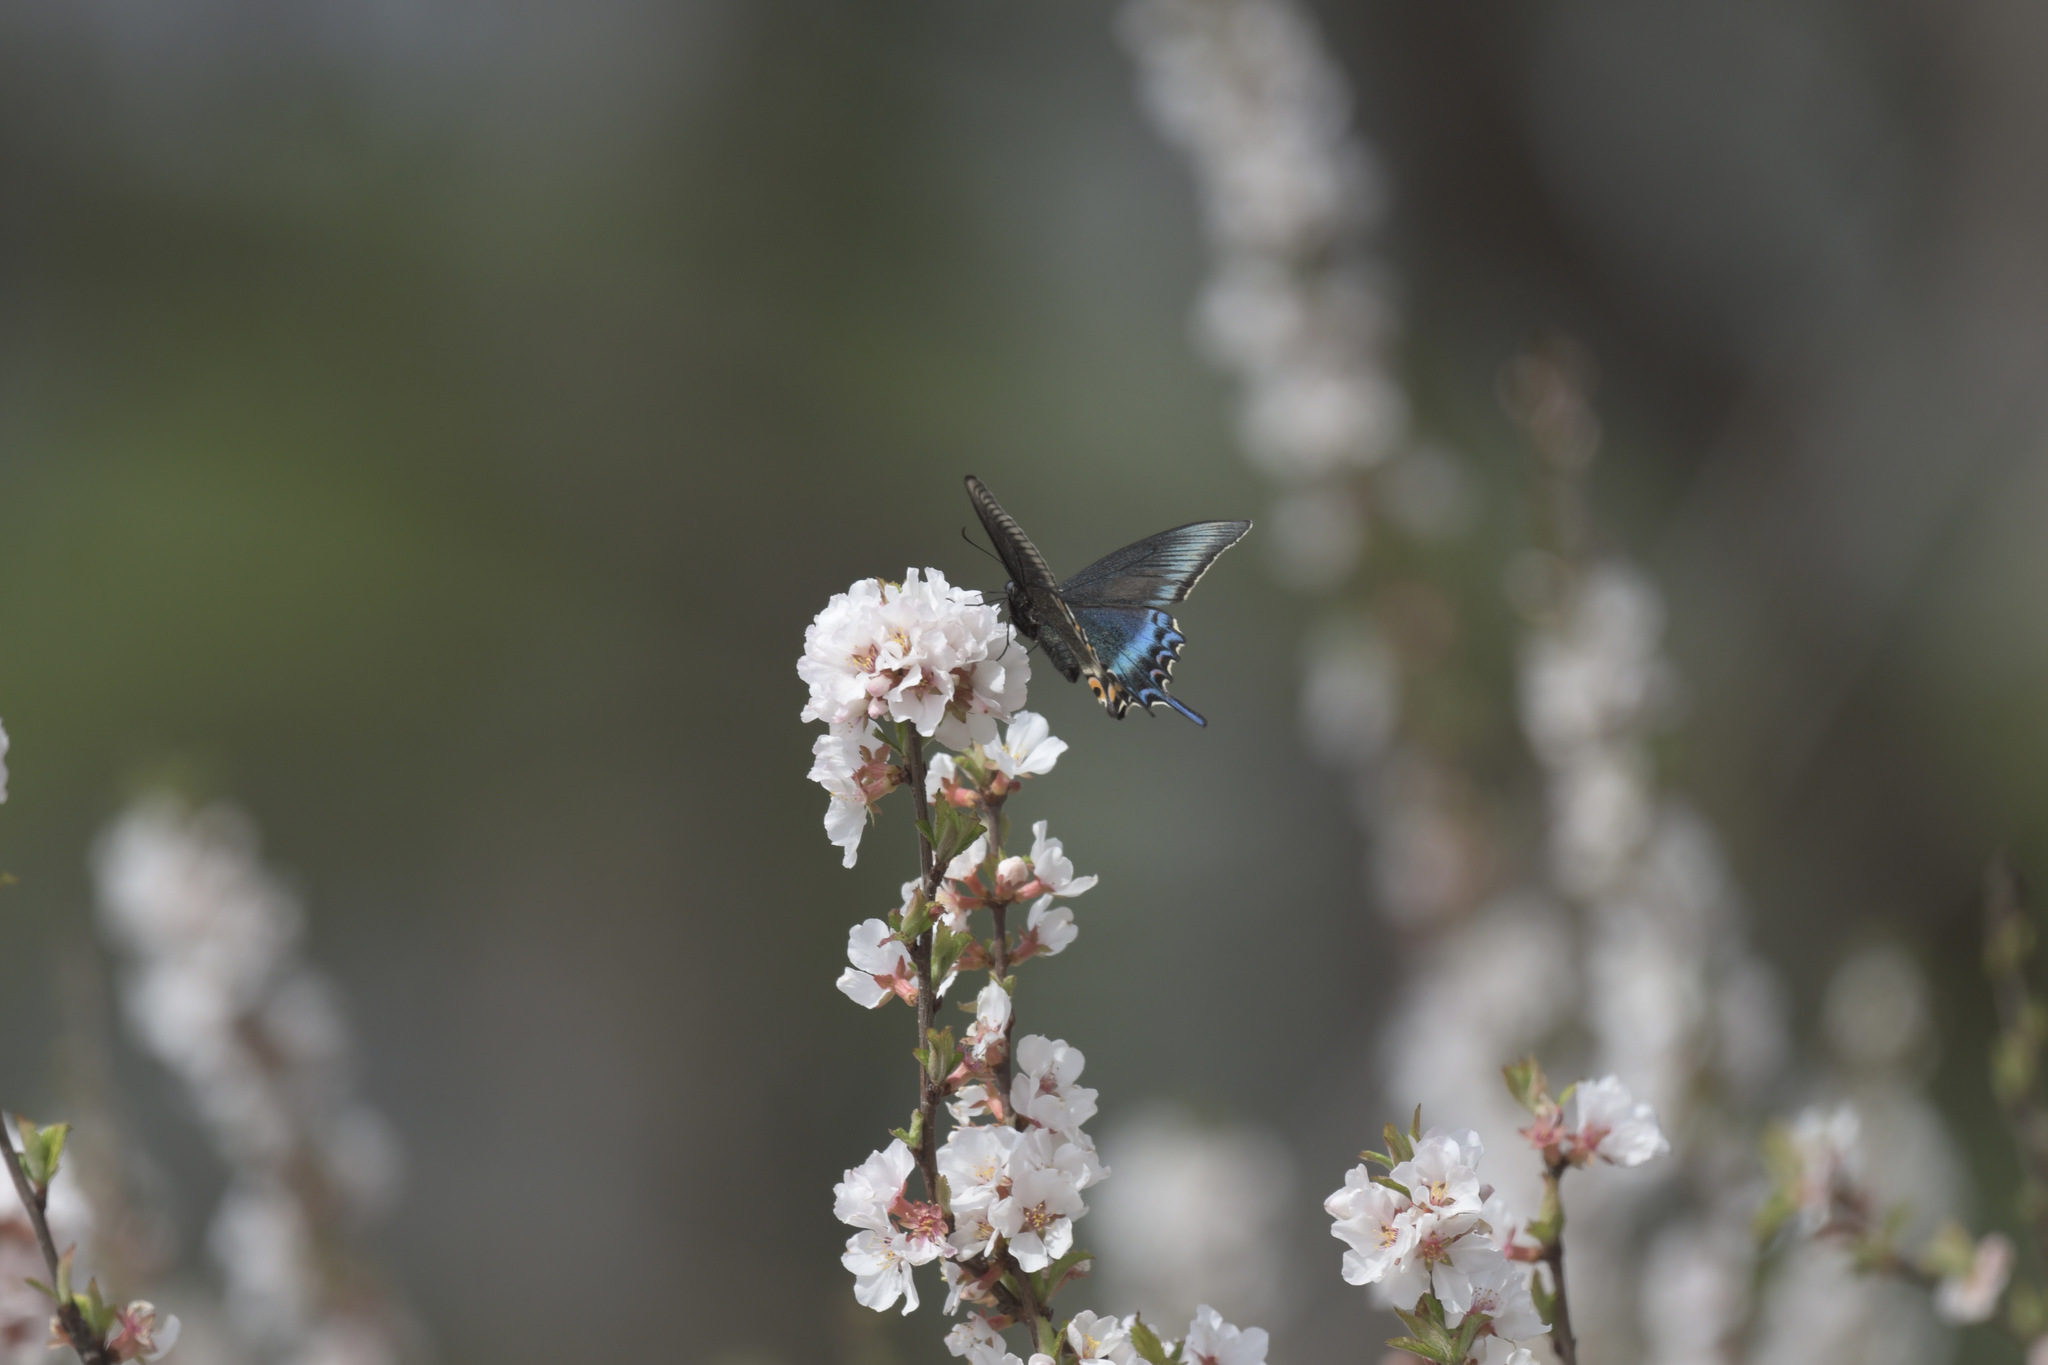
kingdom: Animalia
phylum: Arthropoda
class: Insecta
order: Lepidoptera
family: Papilionidae
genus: Papilio
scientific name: Papilio maackii
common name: Alpine black swallowtail
